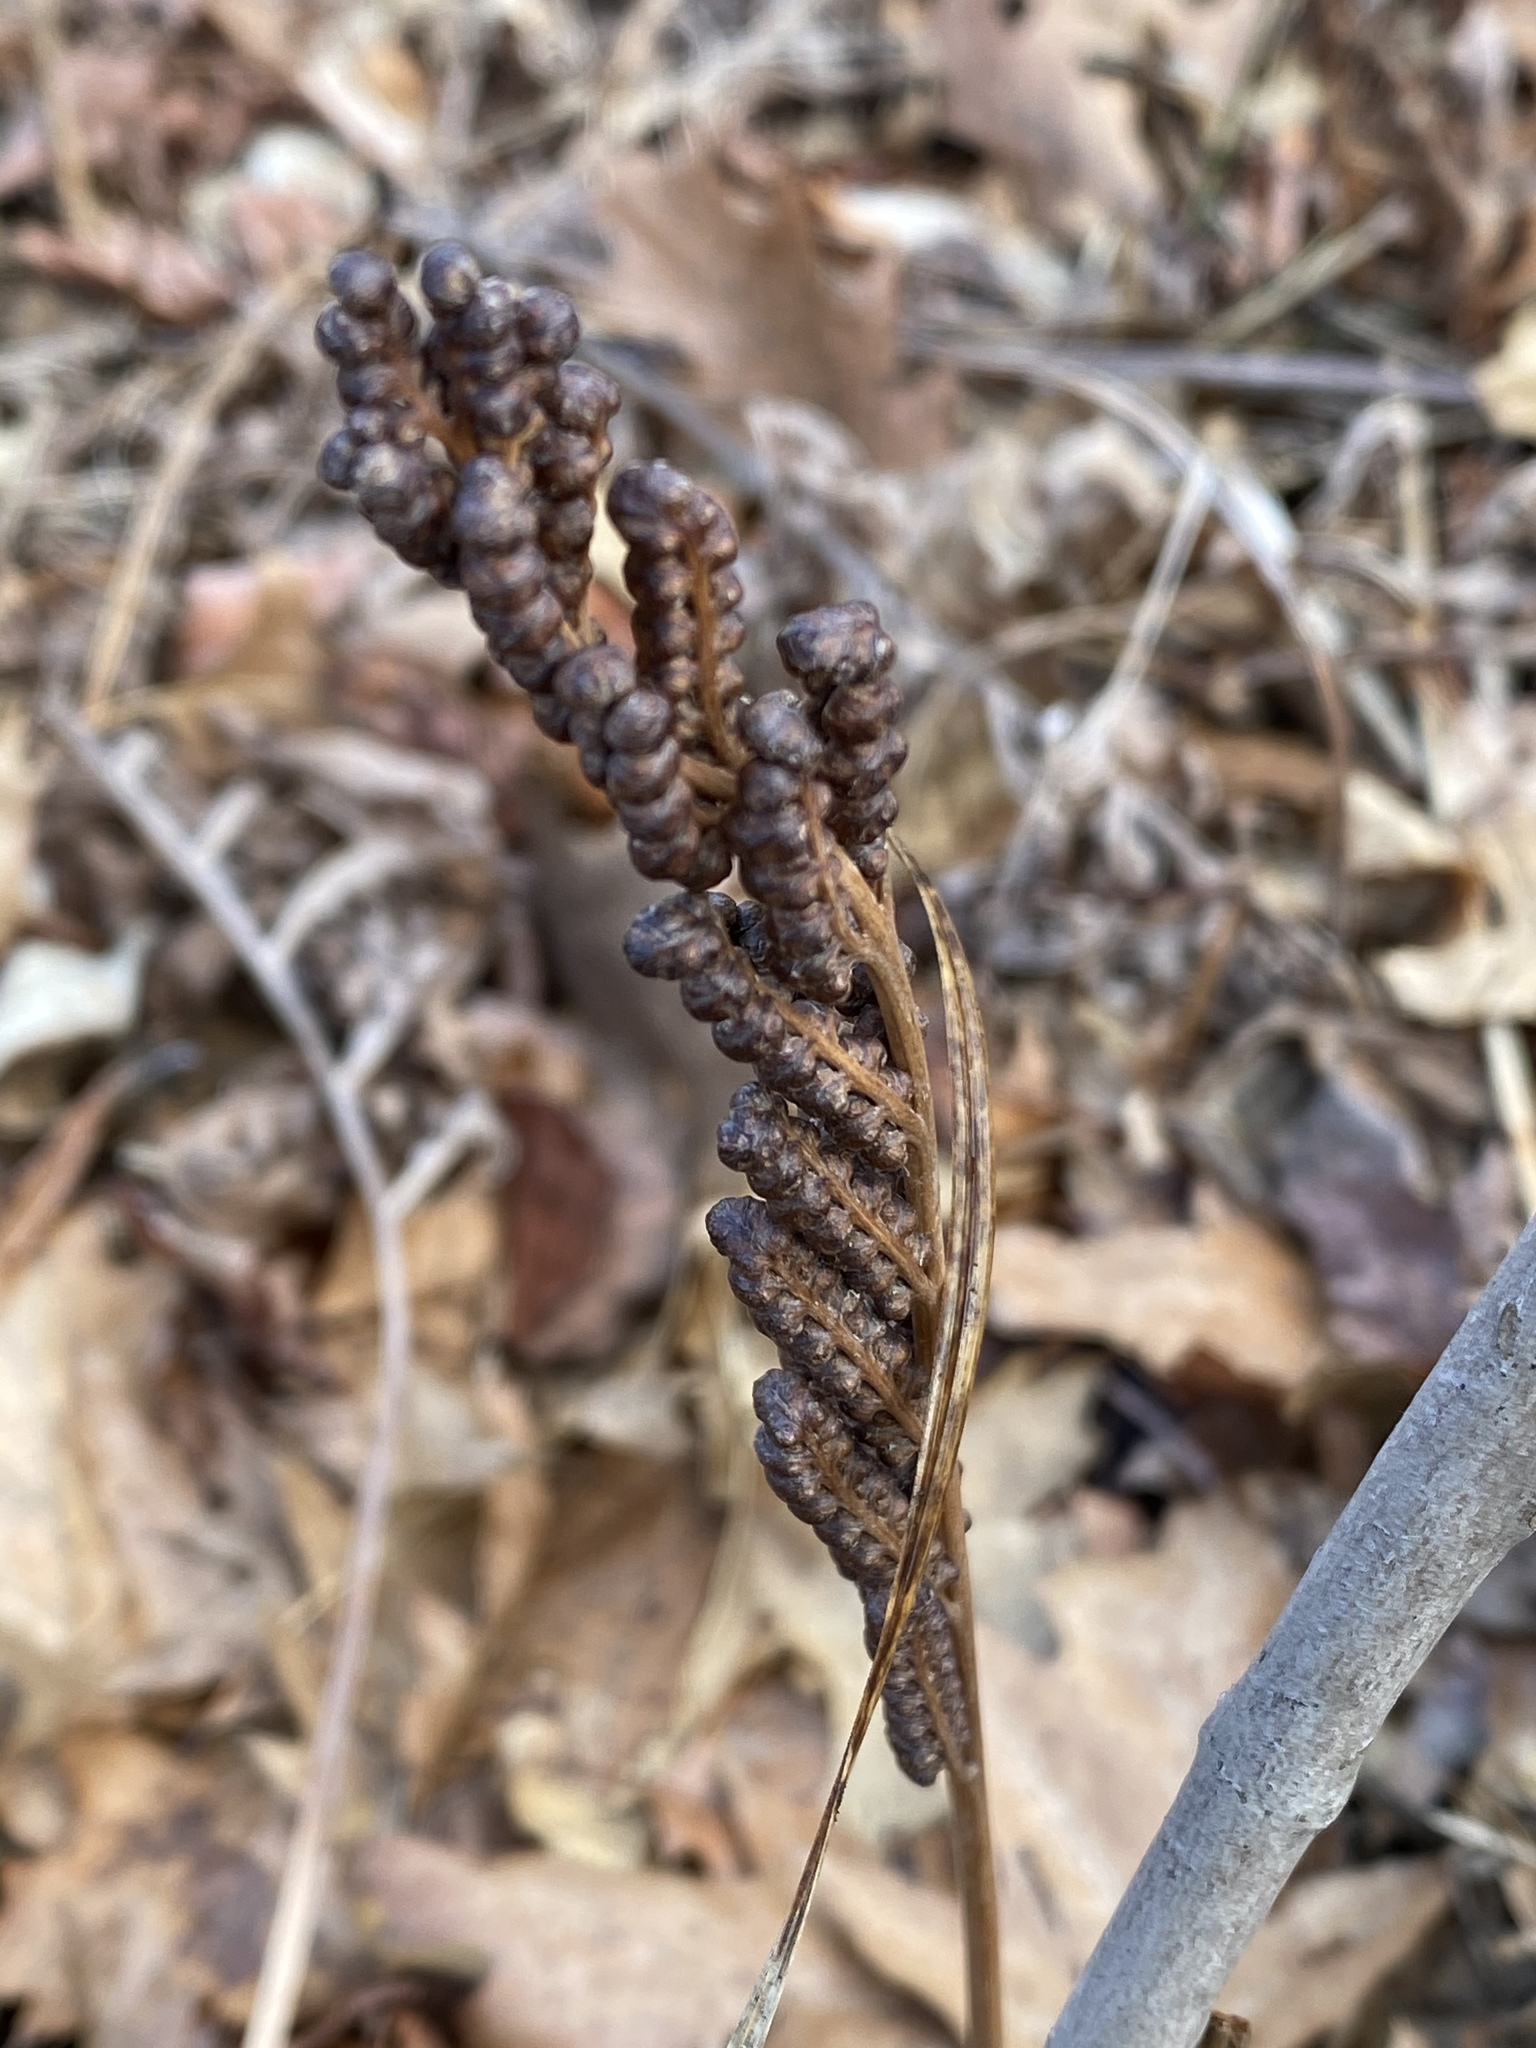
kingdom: Plantae
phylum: Tracheophyta
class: Polypodiopsida
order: Polypodiales
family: Onocleaceae
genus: Onoclea
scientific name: Onoclea sensibilis
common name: Sensitive fern
